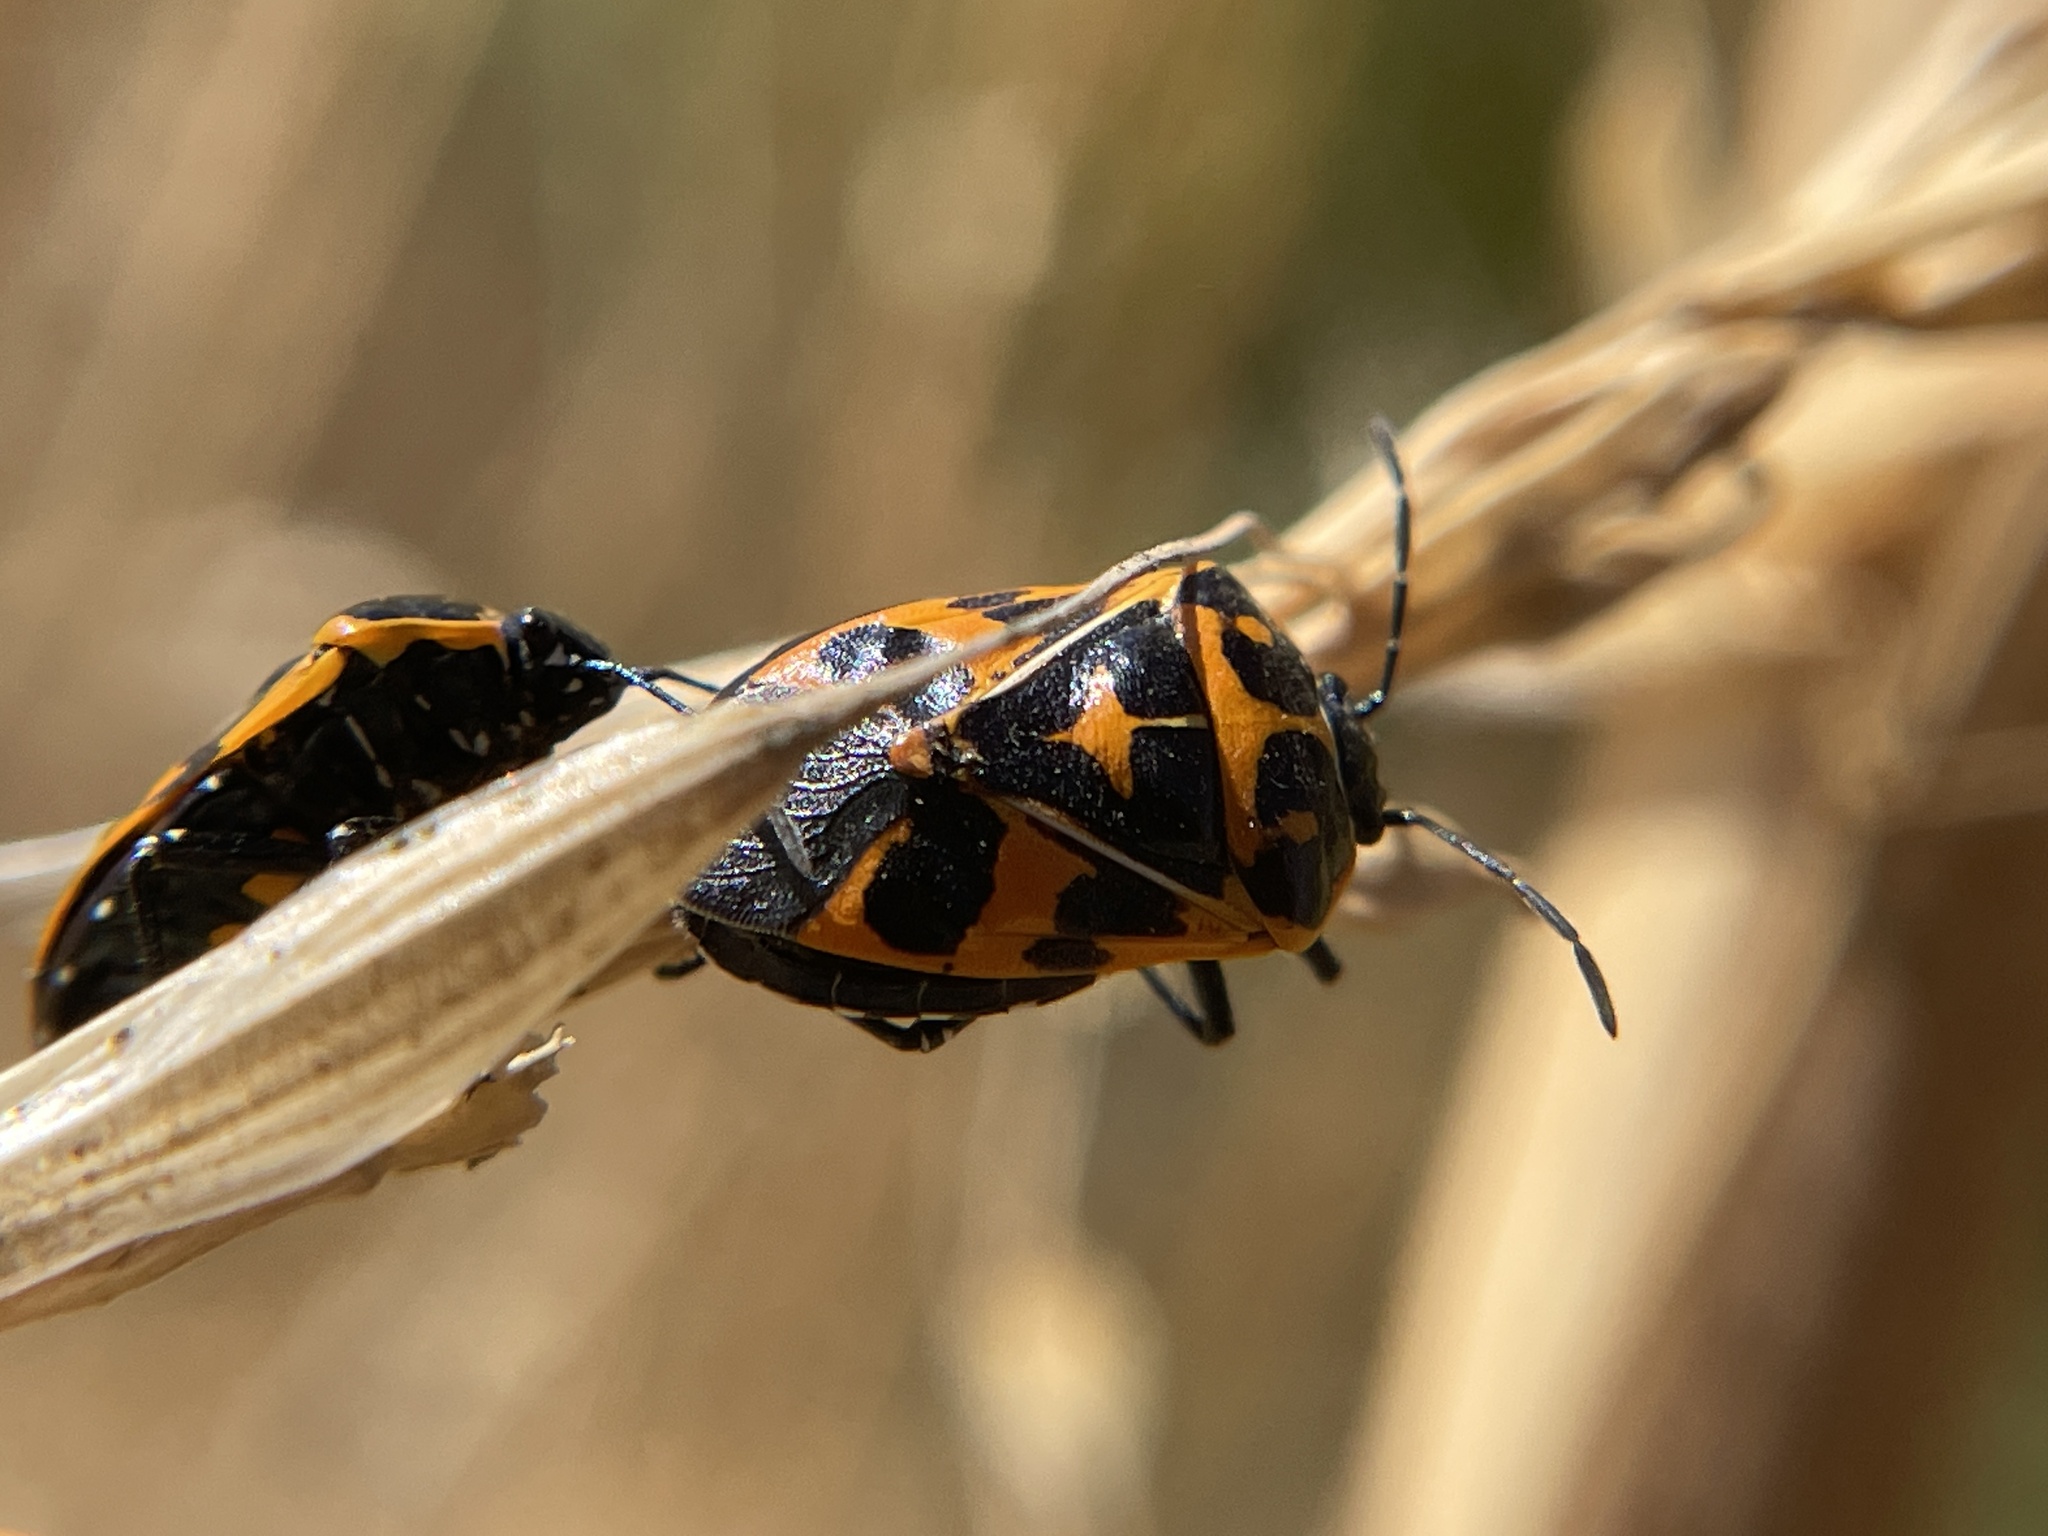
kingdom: Animalia
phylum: Arthropoda
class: Insecta
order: Hemiptera
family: Pentatomidae
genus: Murgantia
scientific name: Murgantia histrionica
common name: Harlequin bug
